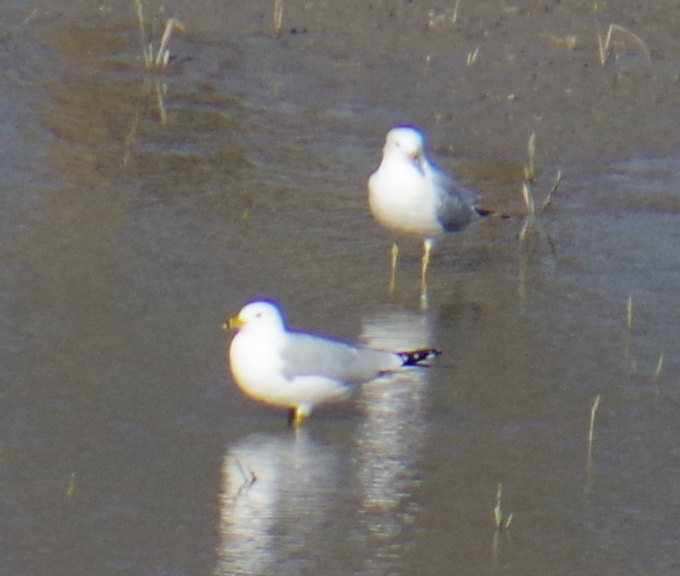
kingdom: Animalia
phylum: Chordata
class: Aves
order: Charadriiformes
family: Laridae
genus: Larus
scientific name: Larus delawarensis
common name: Ring-billed gull
